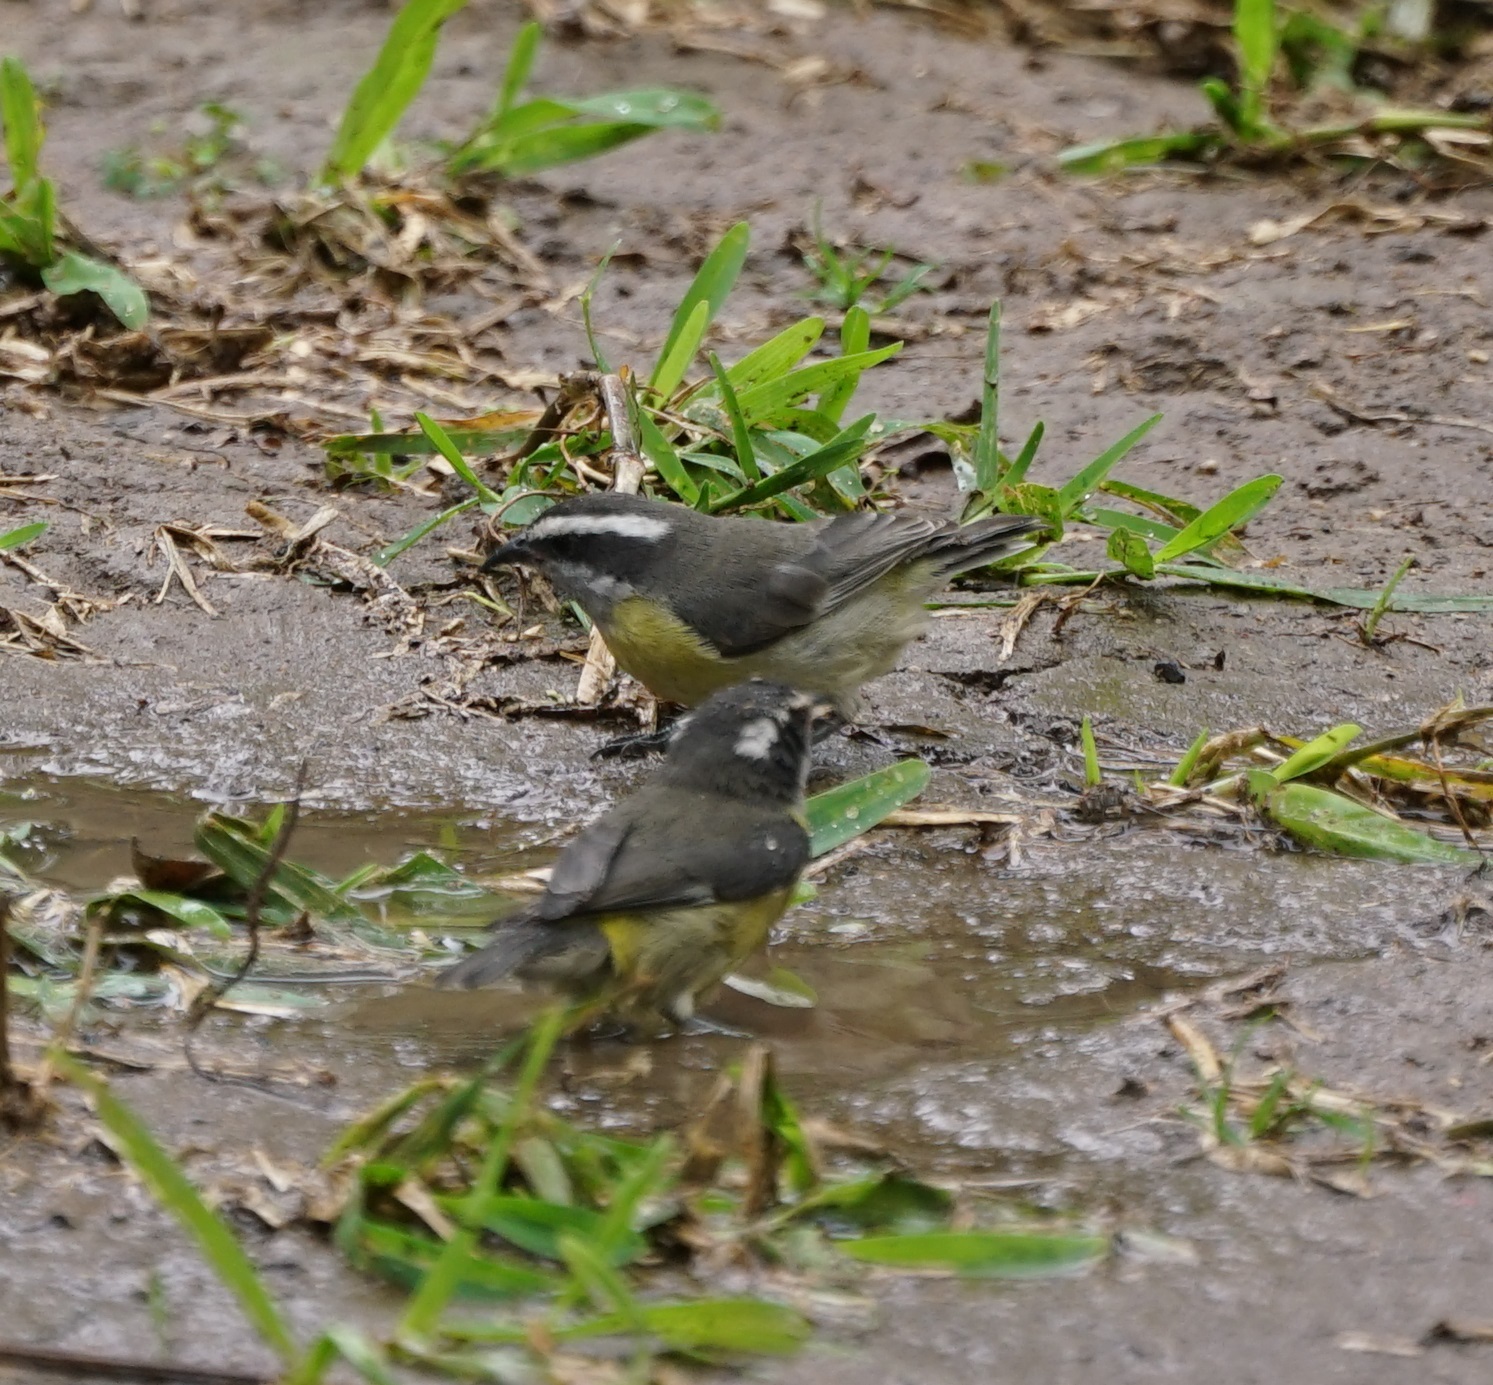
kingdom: Animalia
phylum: Chordata
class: Aves
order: Passeriformes
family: Thraupidae
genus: Coereba
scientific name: Coereba flaveola
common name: Bananaquit
